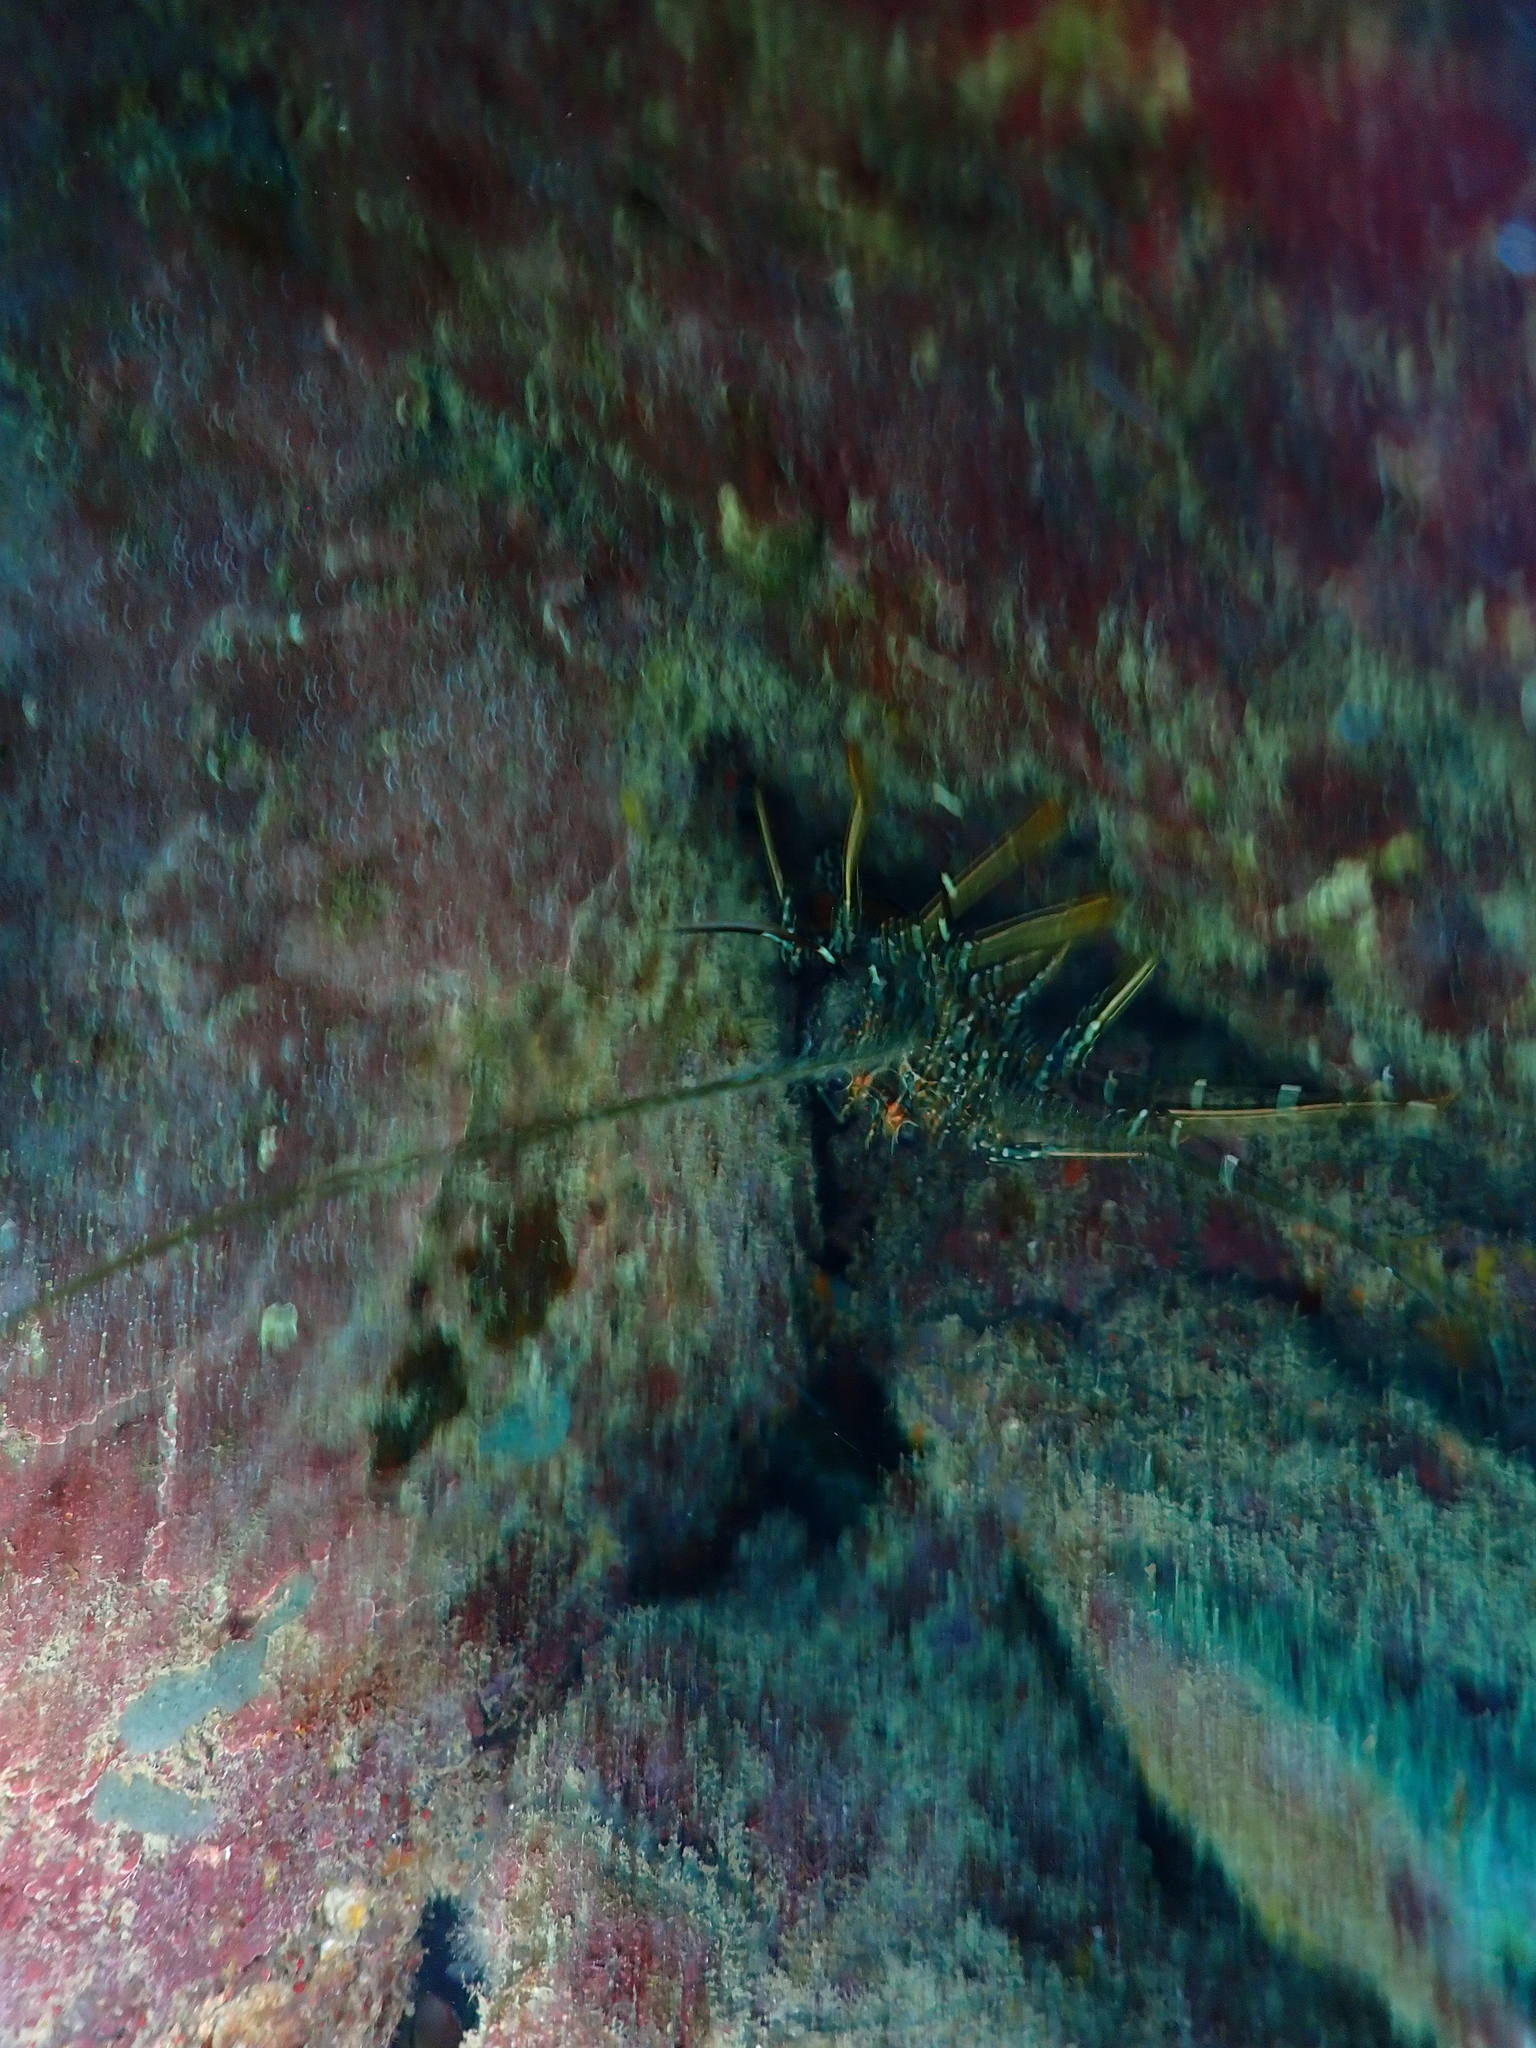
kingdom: Animalia
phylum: Arthropoda
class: Malacostraca
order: Decapoda
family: Palinuridae
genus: Panulirus
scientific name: Panulirus guttatus
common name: Spotted spiny lobster
